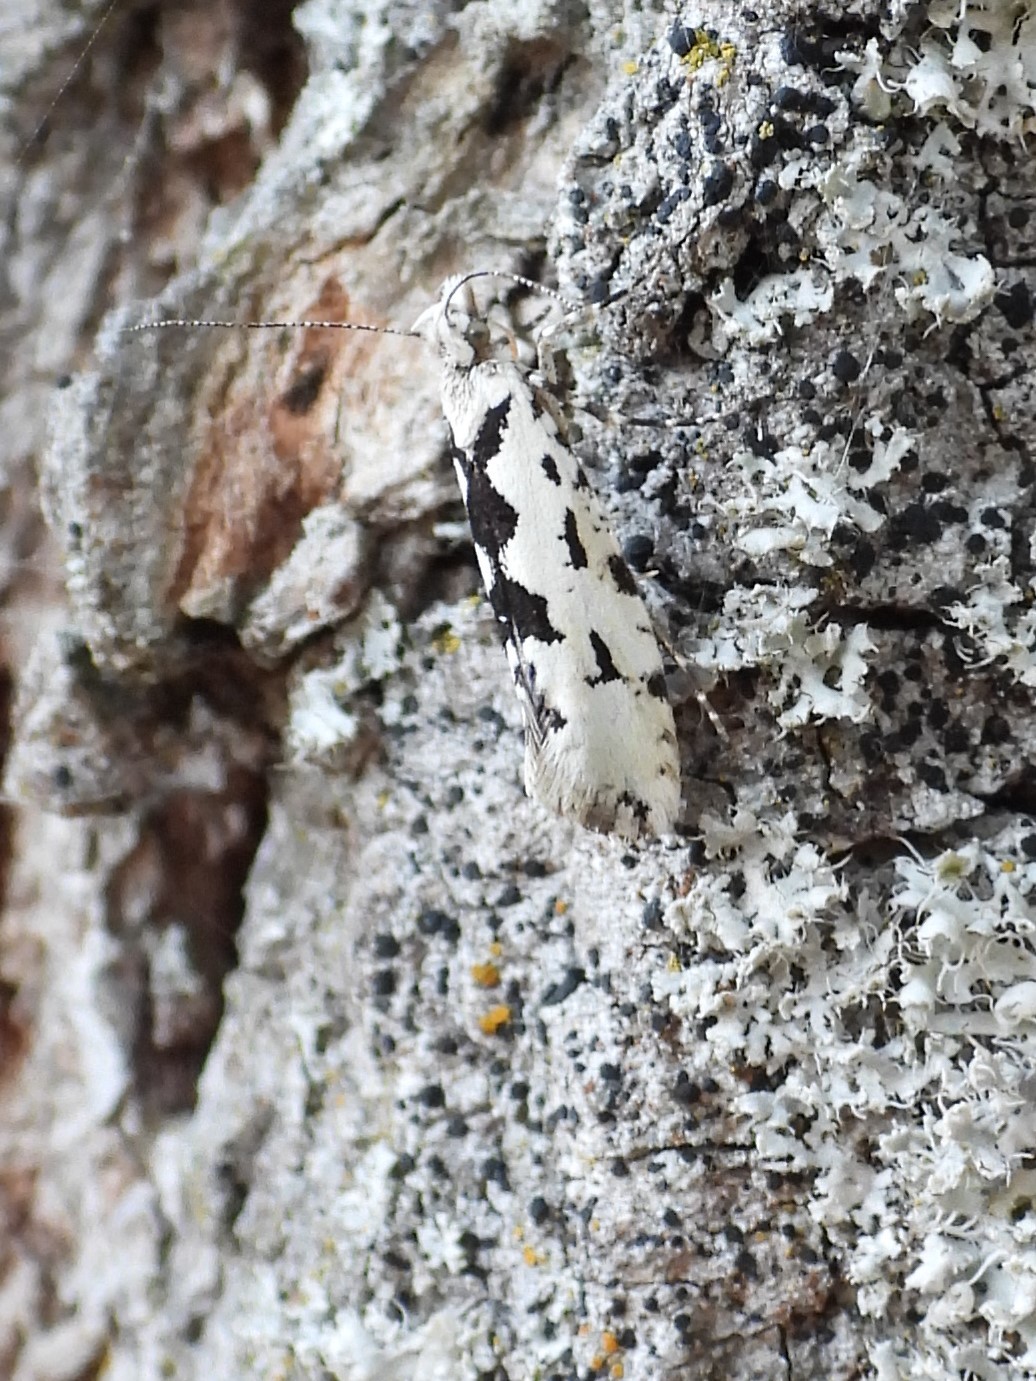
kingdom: Animalia
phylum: Arthropoda
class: Insecta
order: Lepidoptera
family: Plutellidae
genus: Ypsolophus
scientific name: Ypsolophus sequella
